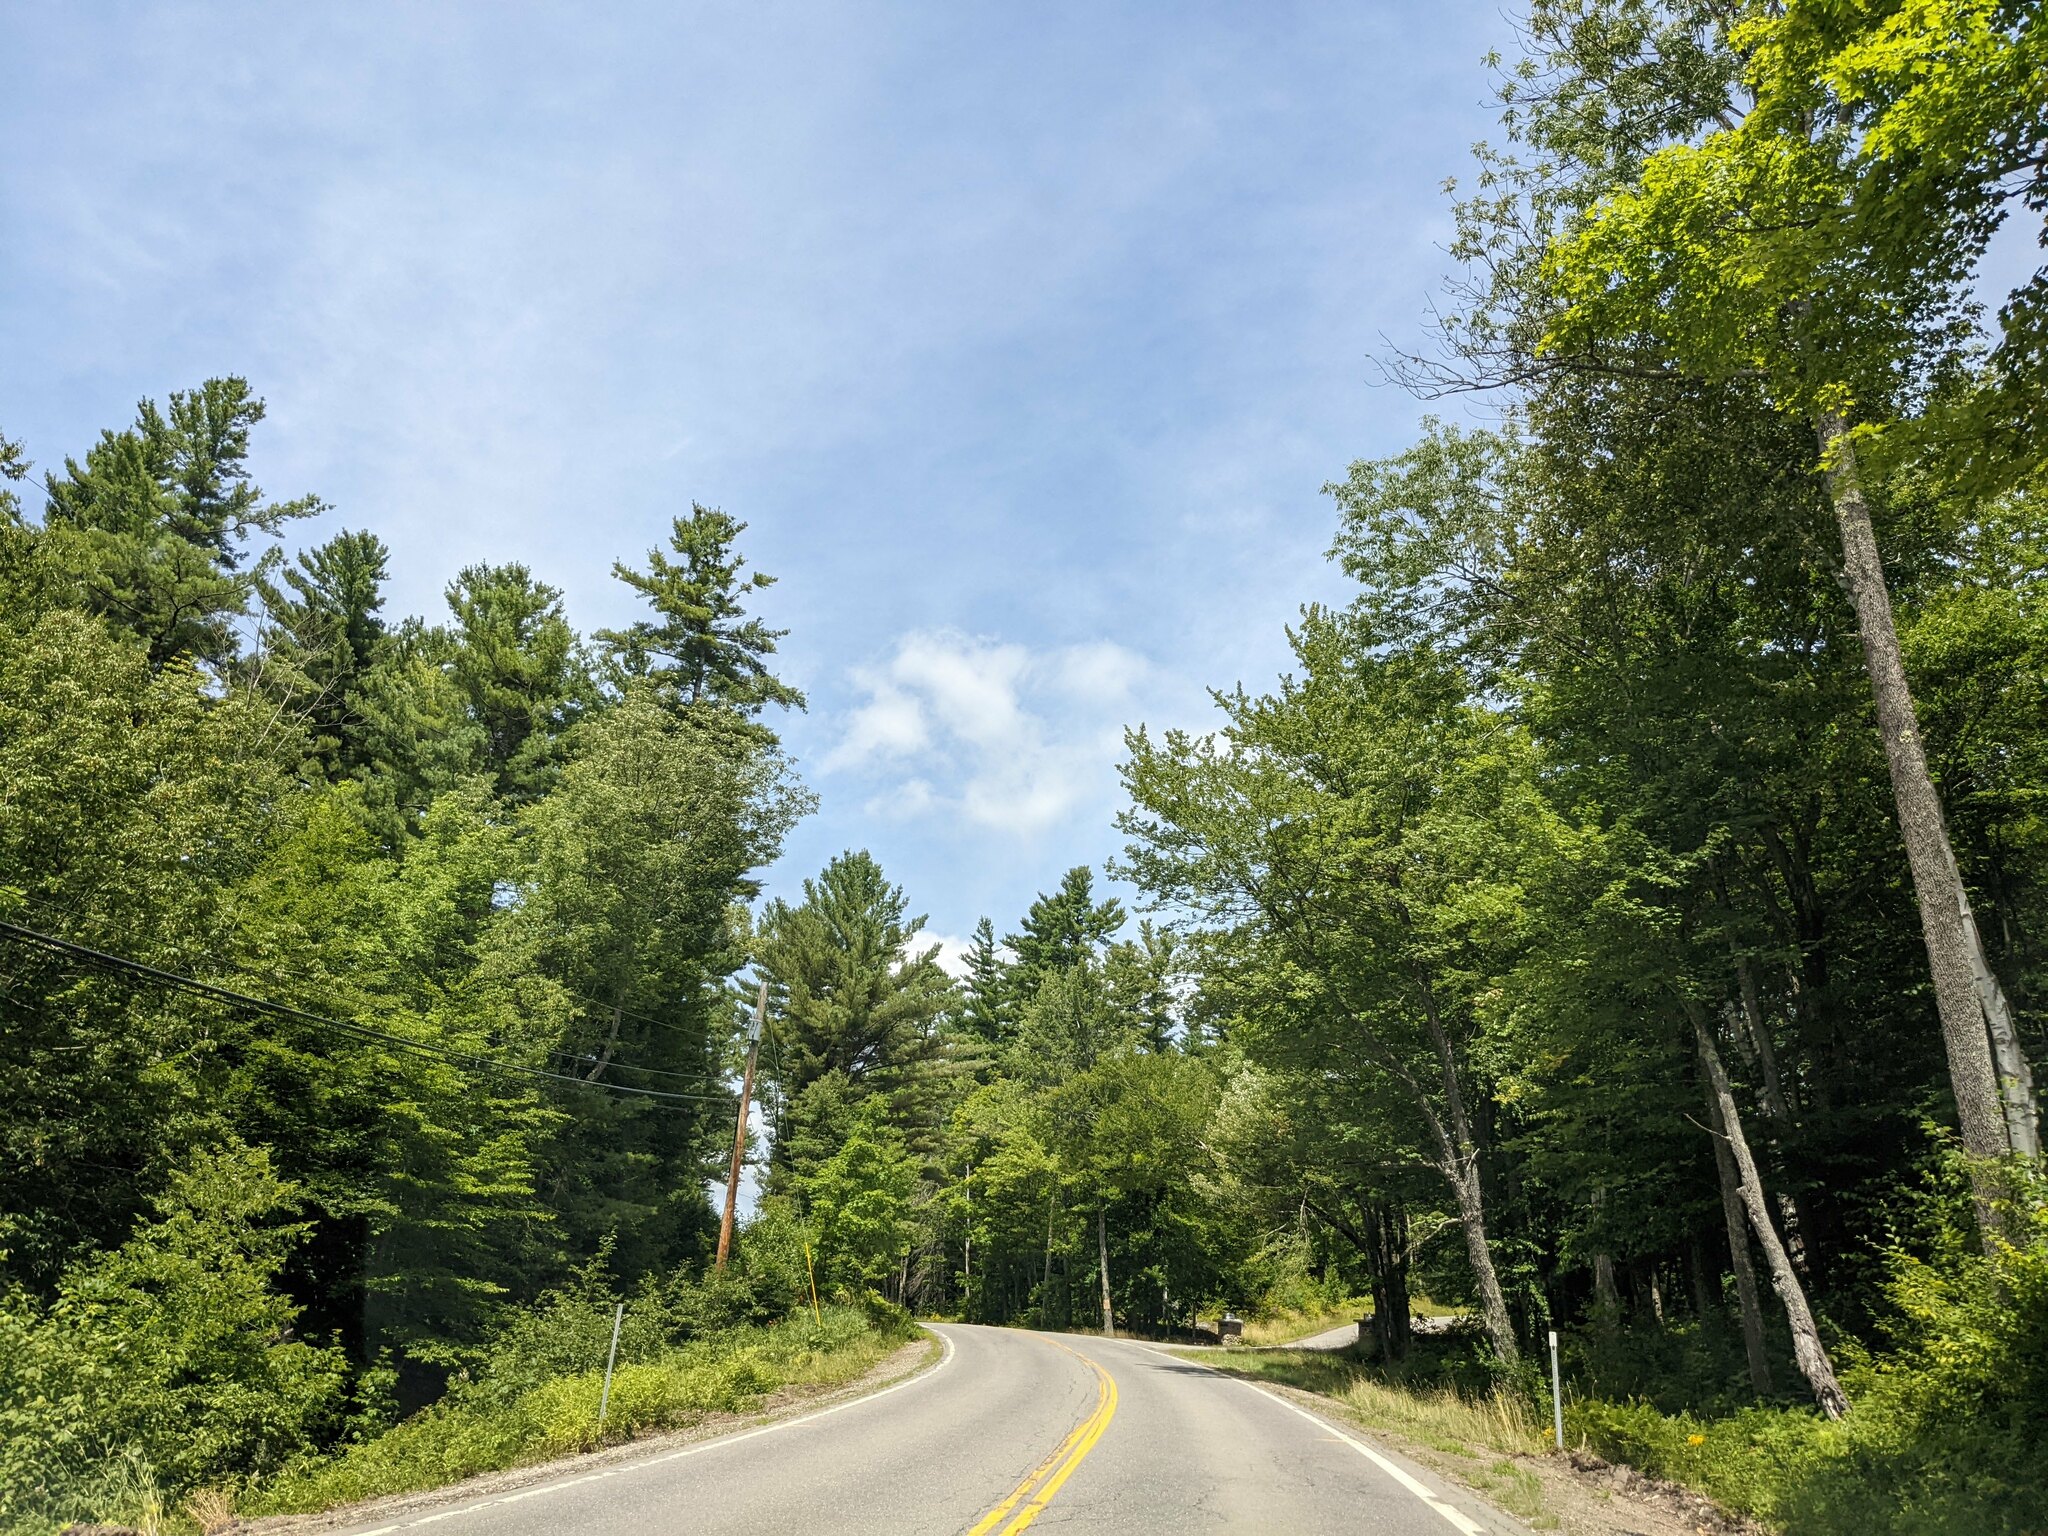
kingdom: Plantae
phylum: Tracheophyta
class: Pinopsida
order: Pinales
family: Pinaceae
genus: Pinus
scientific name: Pinus strobus
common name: Weymouth pine
